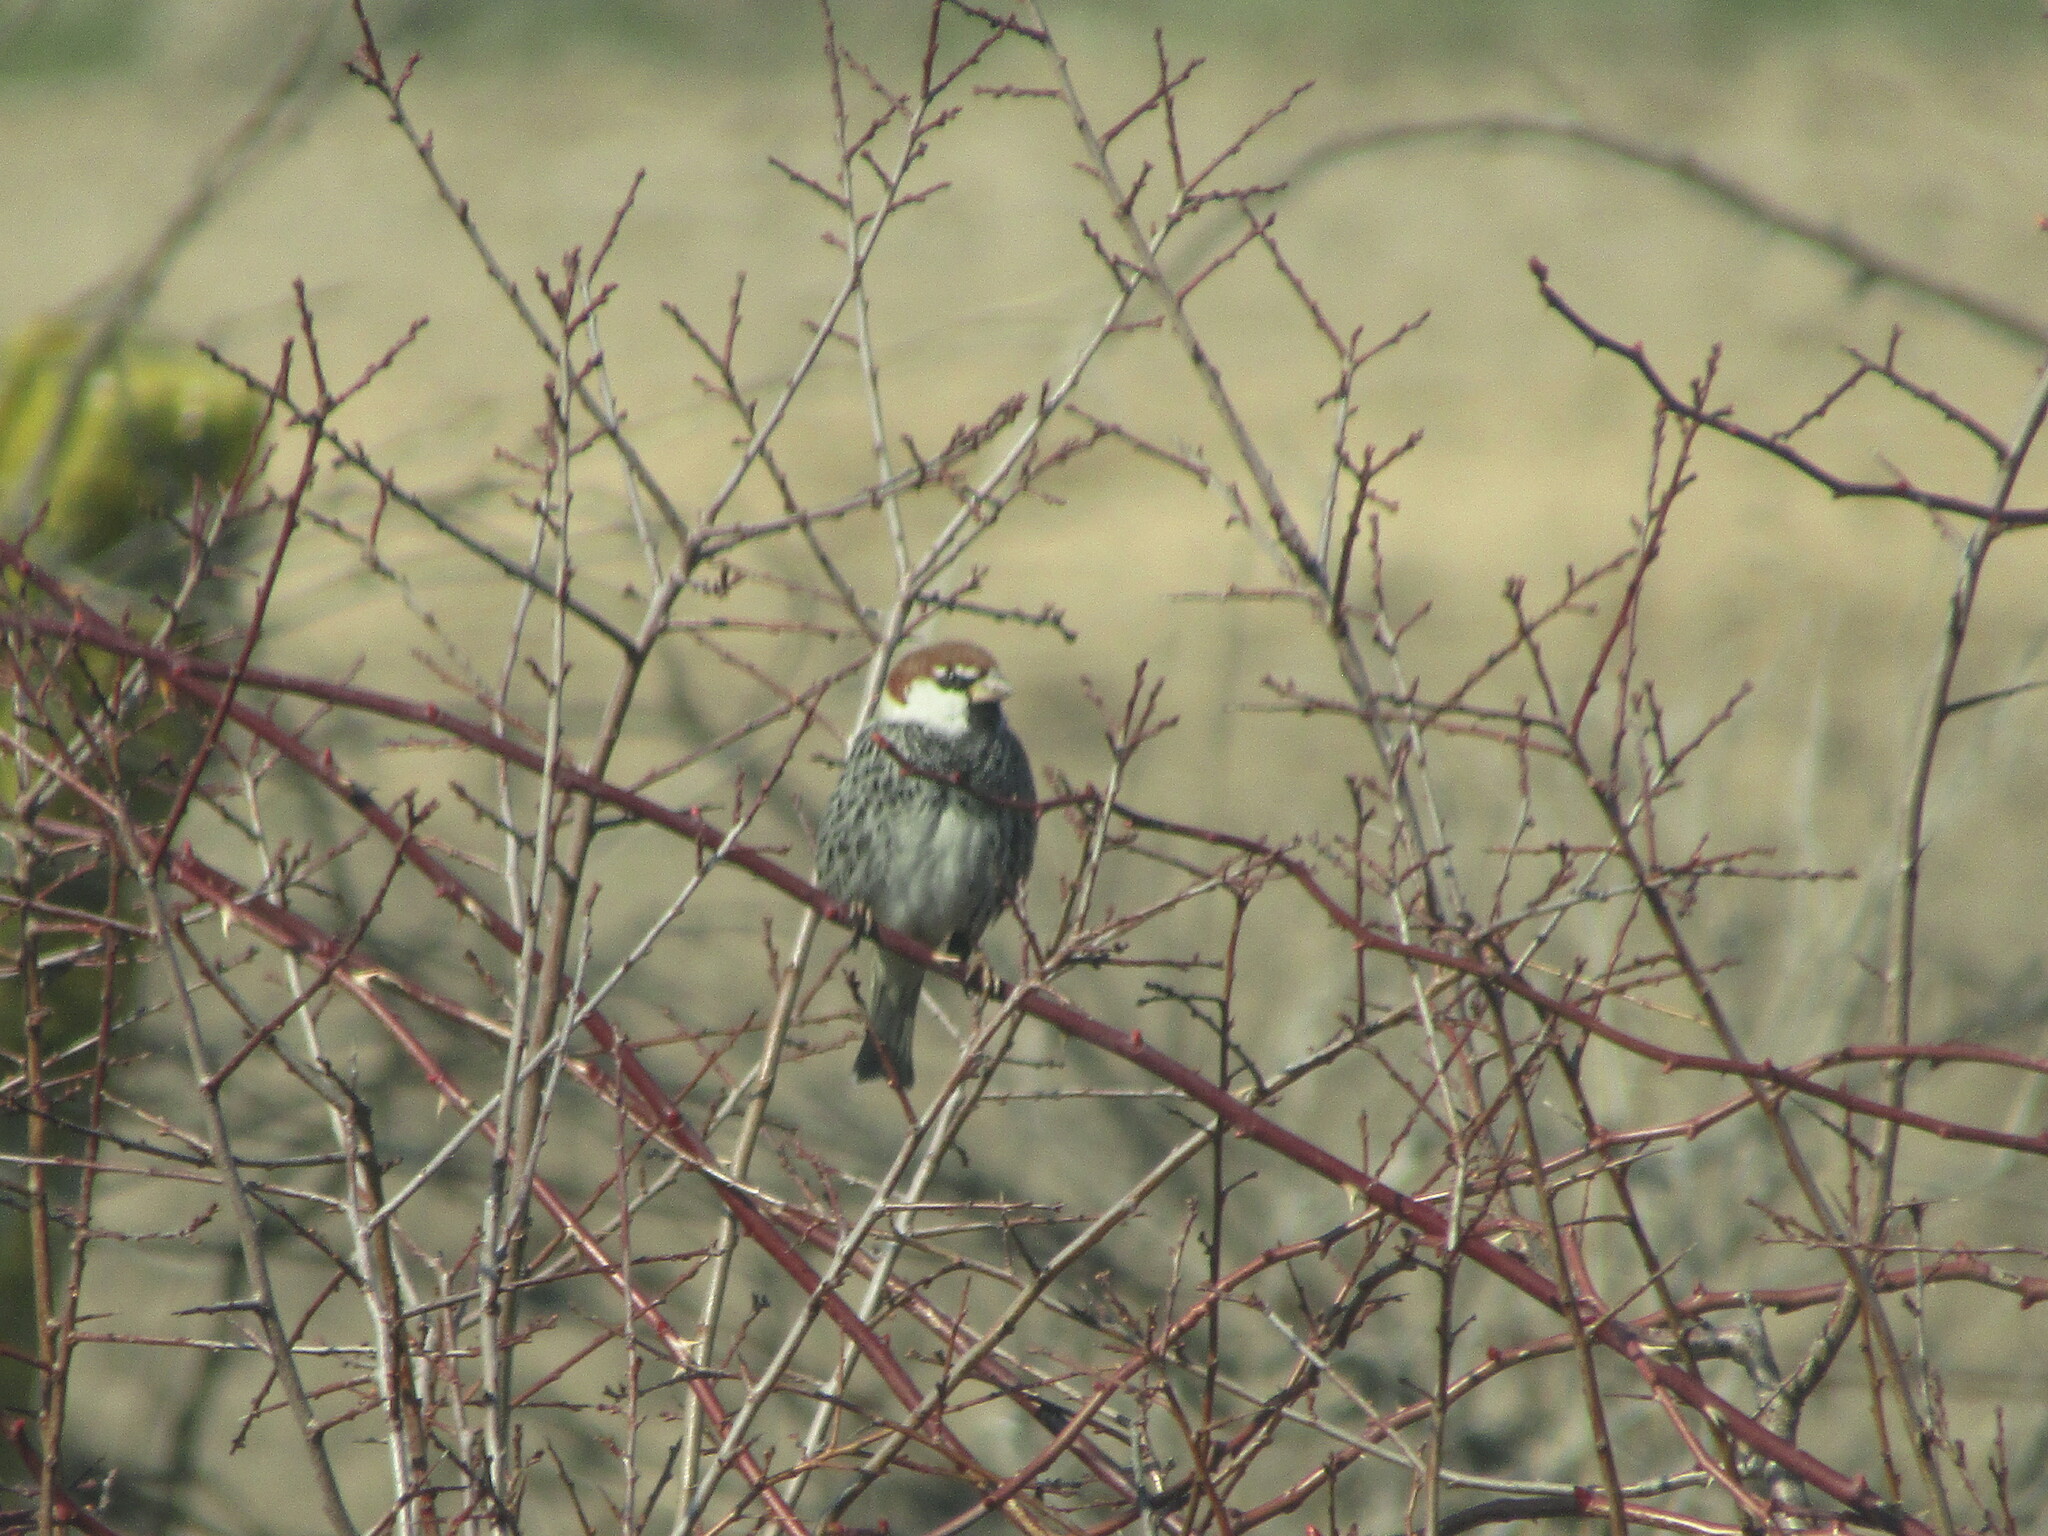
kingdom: Animalia
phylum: Chordata
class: Aves
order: Passeriformes
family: Passeridae
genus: Passer
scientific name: Passer hispaniolensis
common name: Spanish sparrow
